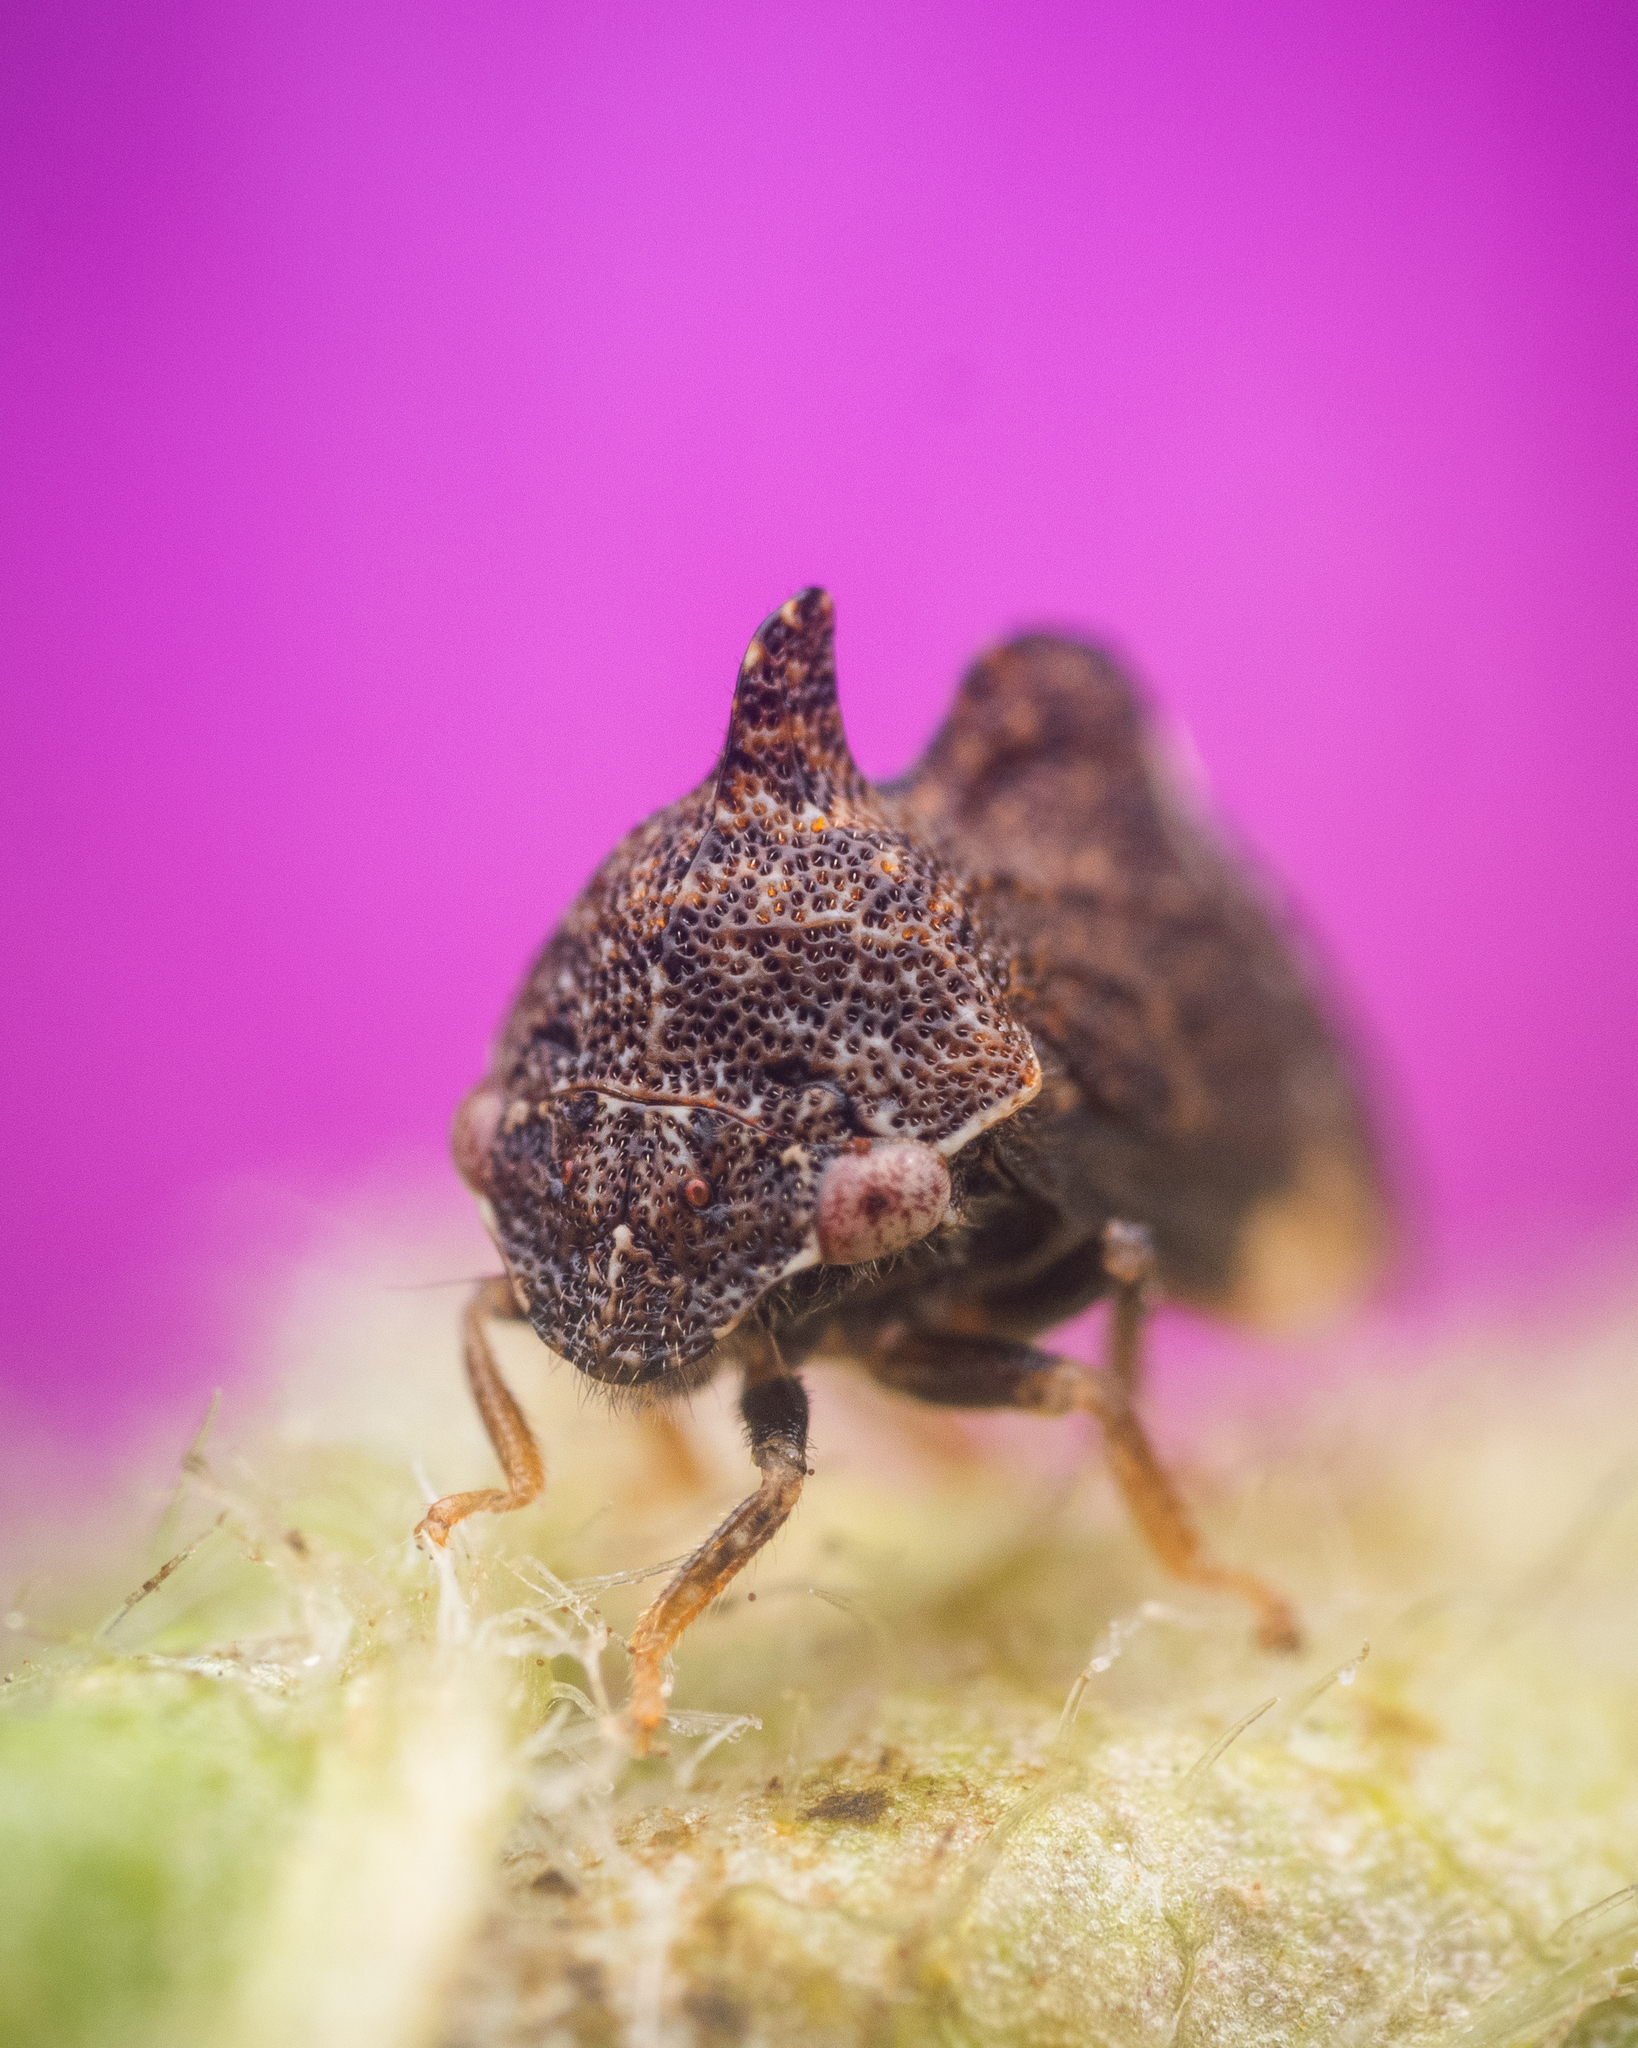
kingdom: Animalia
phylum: Arthropoda
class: Insecta
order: Hemiptera
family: Membracidae
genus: Entylia
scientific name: Entylia carinata
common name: Keeled treehopper
